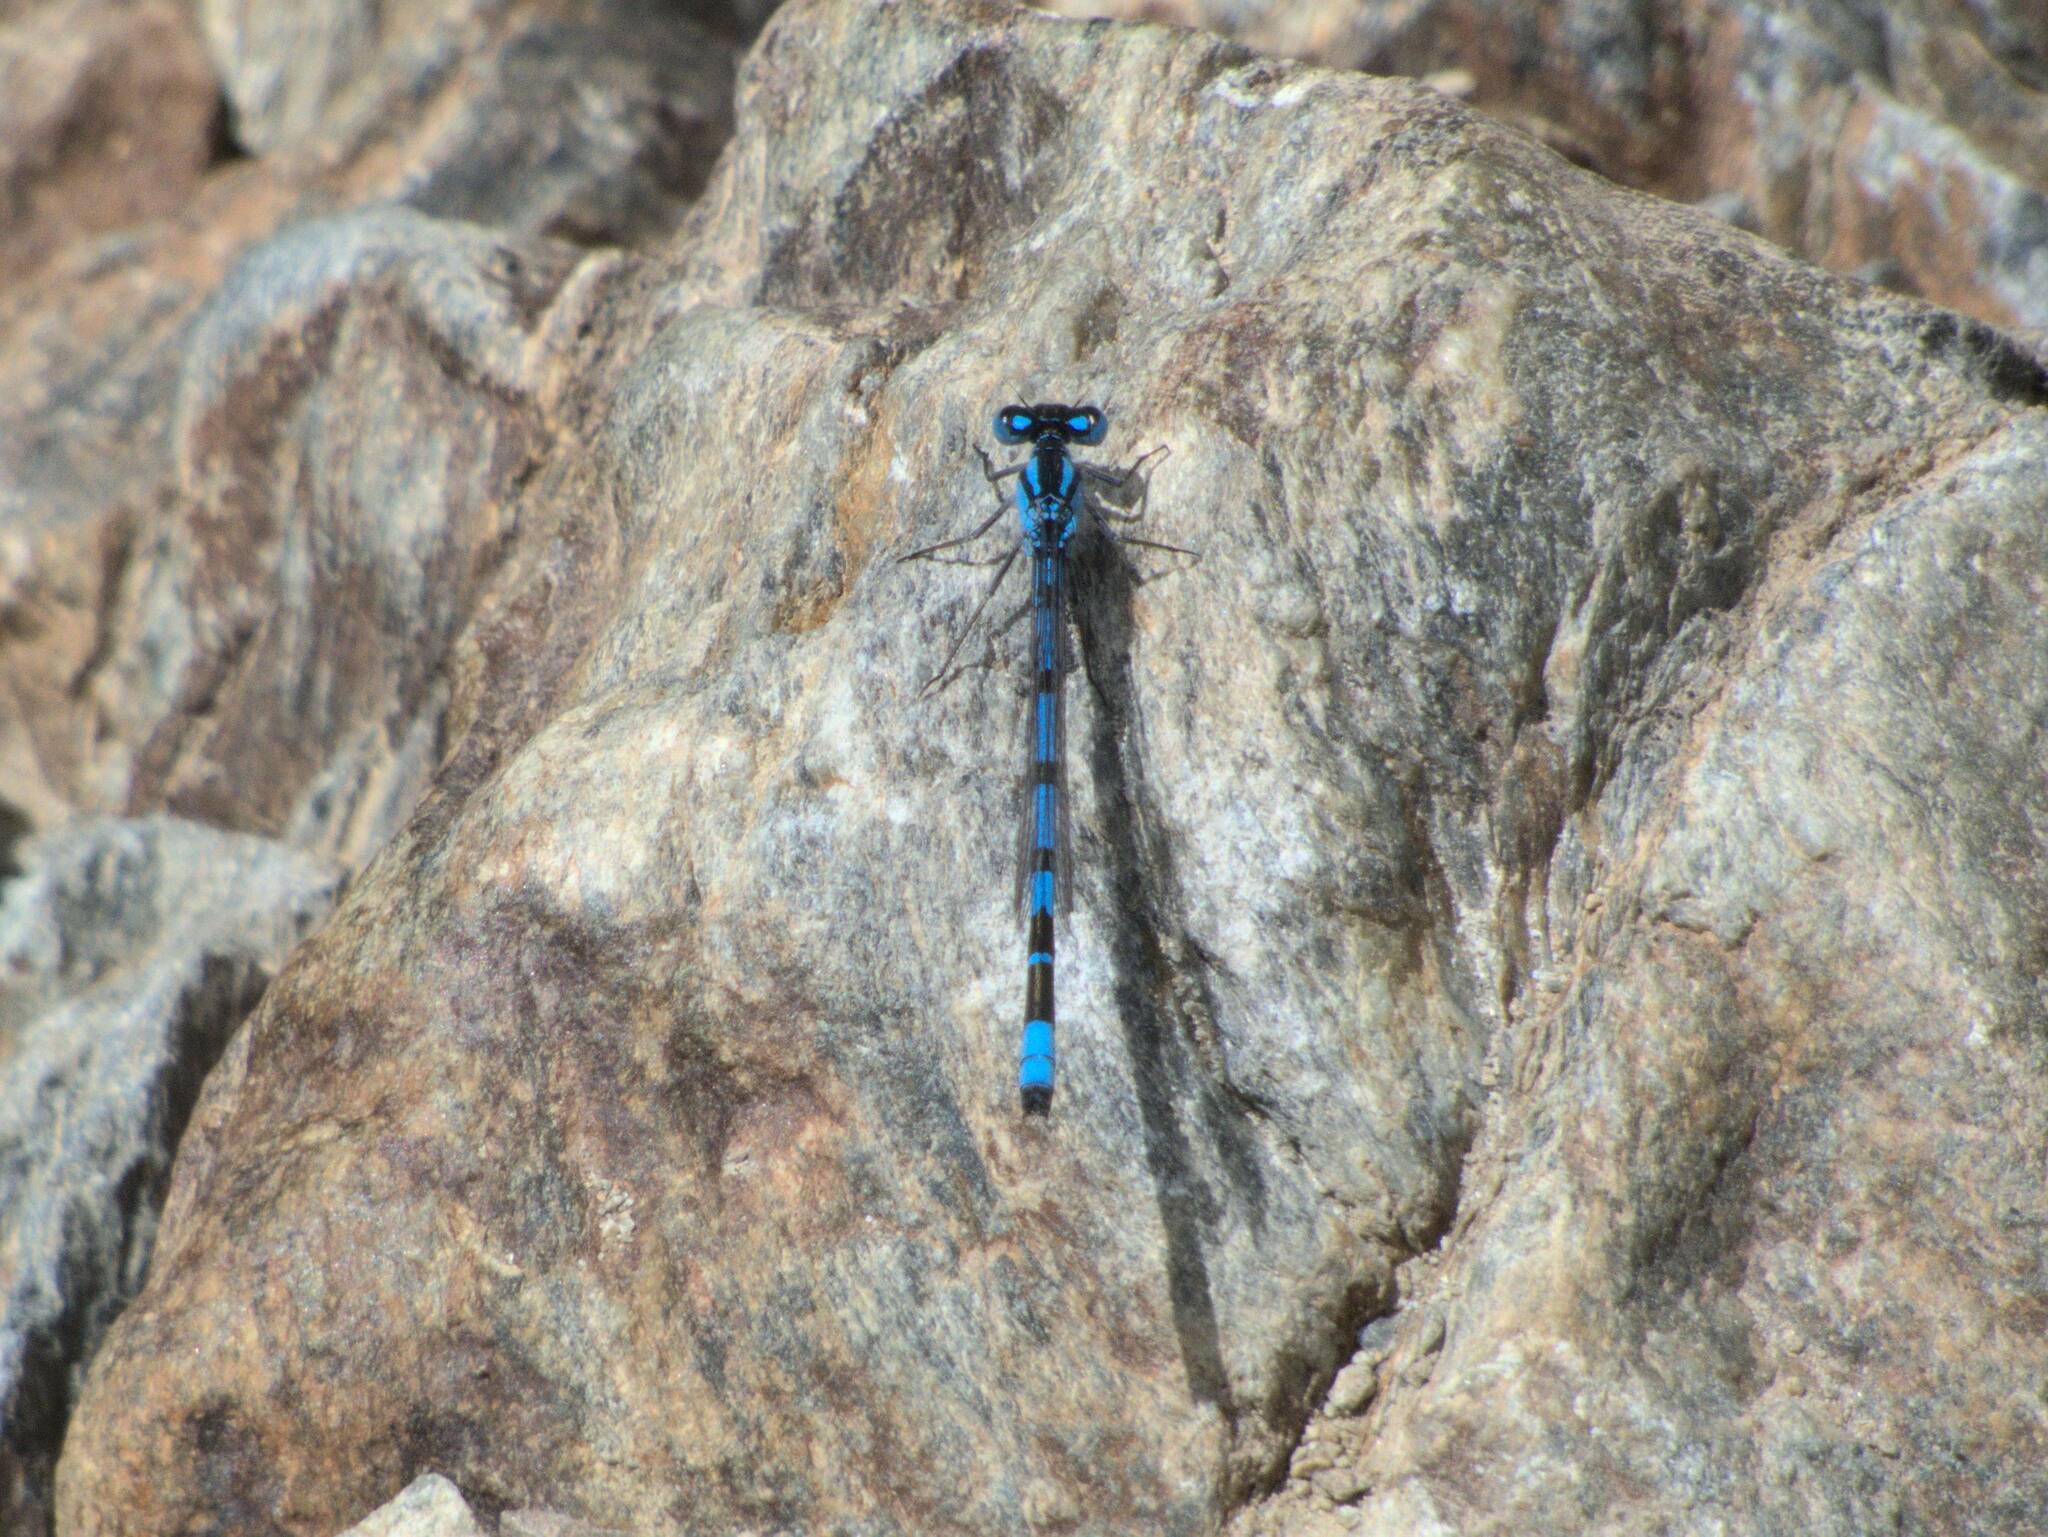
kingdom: Animalia
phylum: Arthropoda
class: Insecta
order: Odonata
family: Coenagrionidae
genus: Enallagma
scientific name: Enallagma cyathigerum
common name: Common blue damselfly
